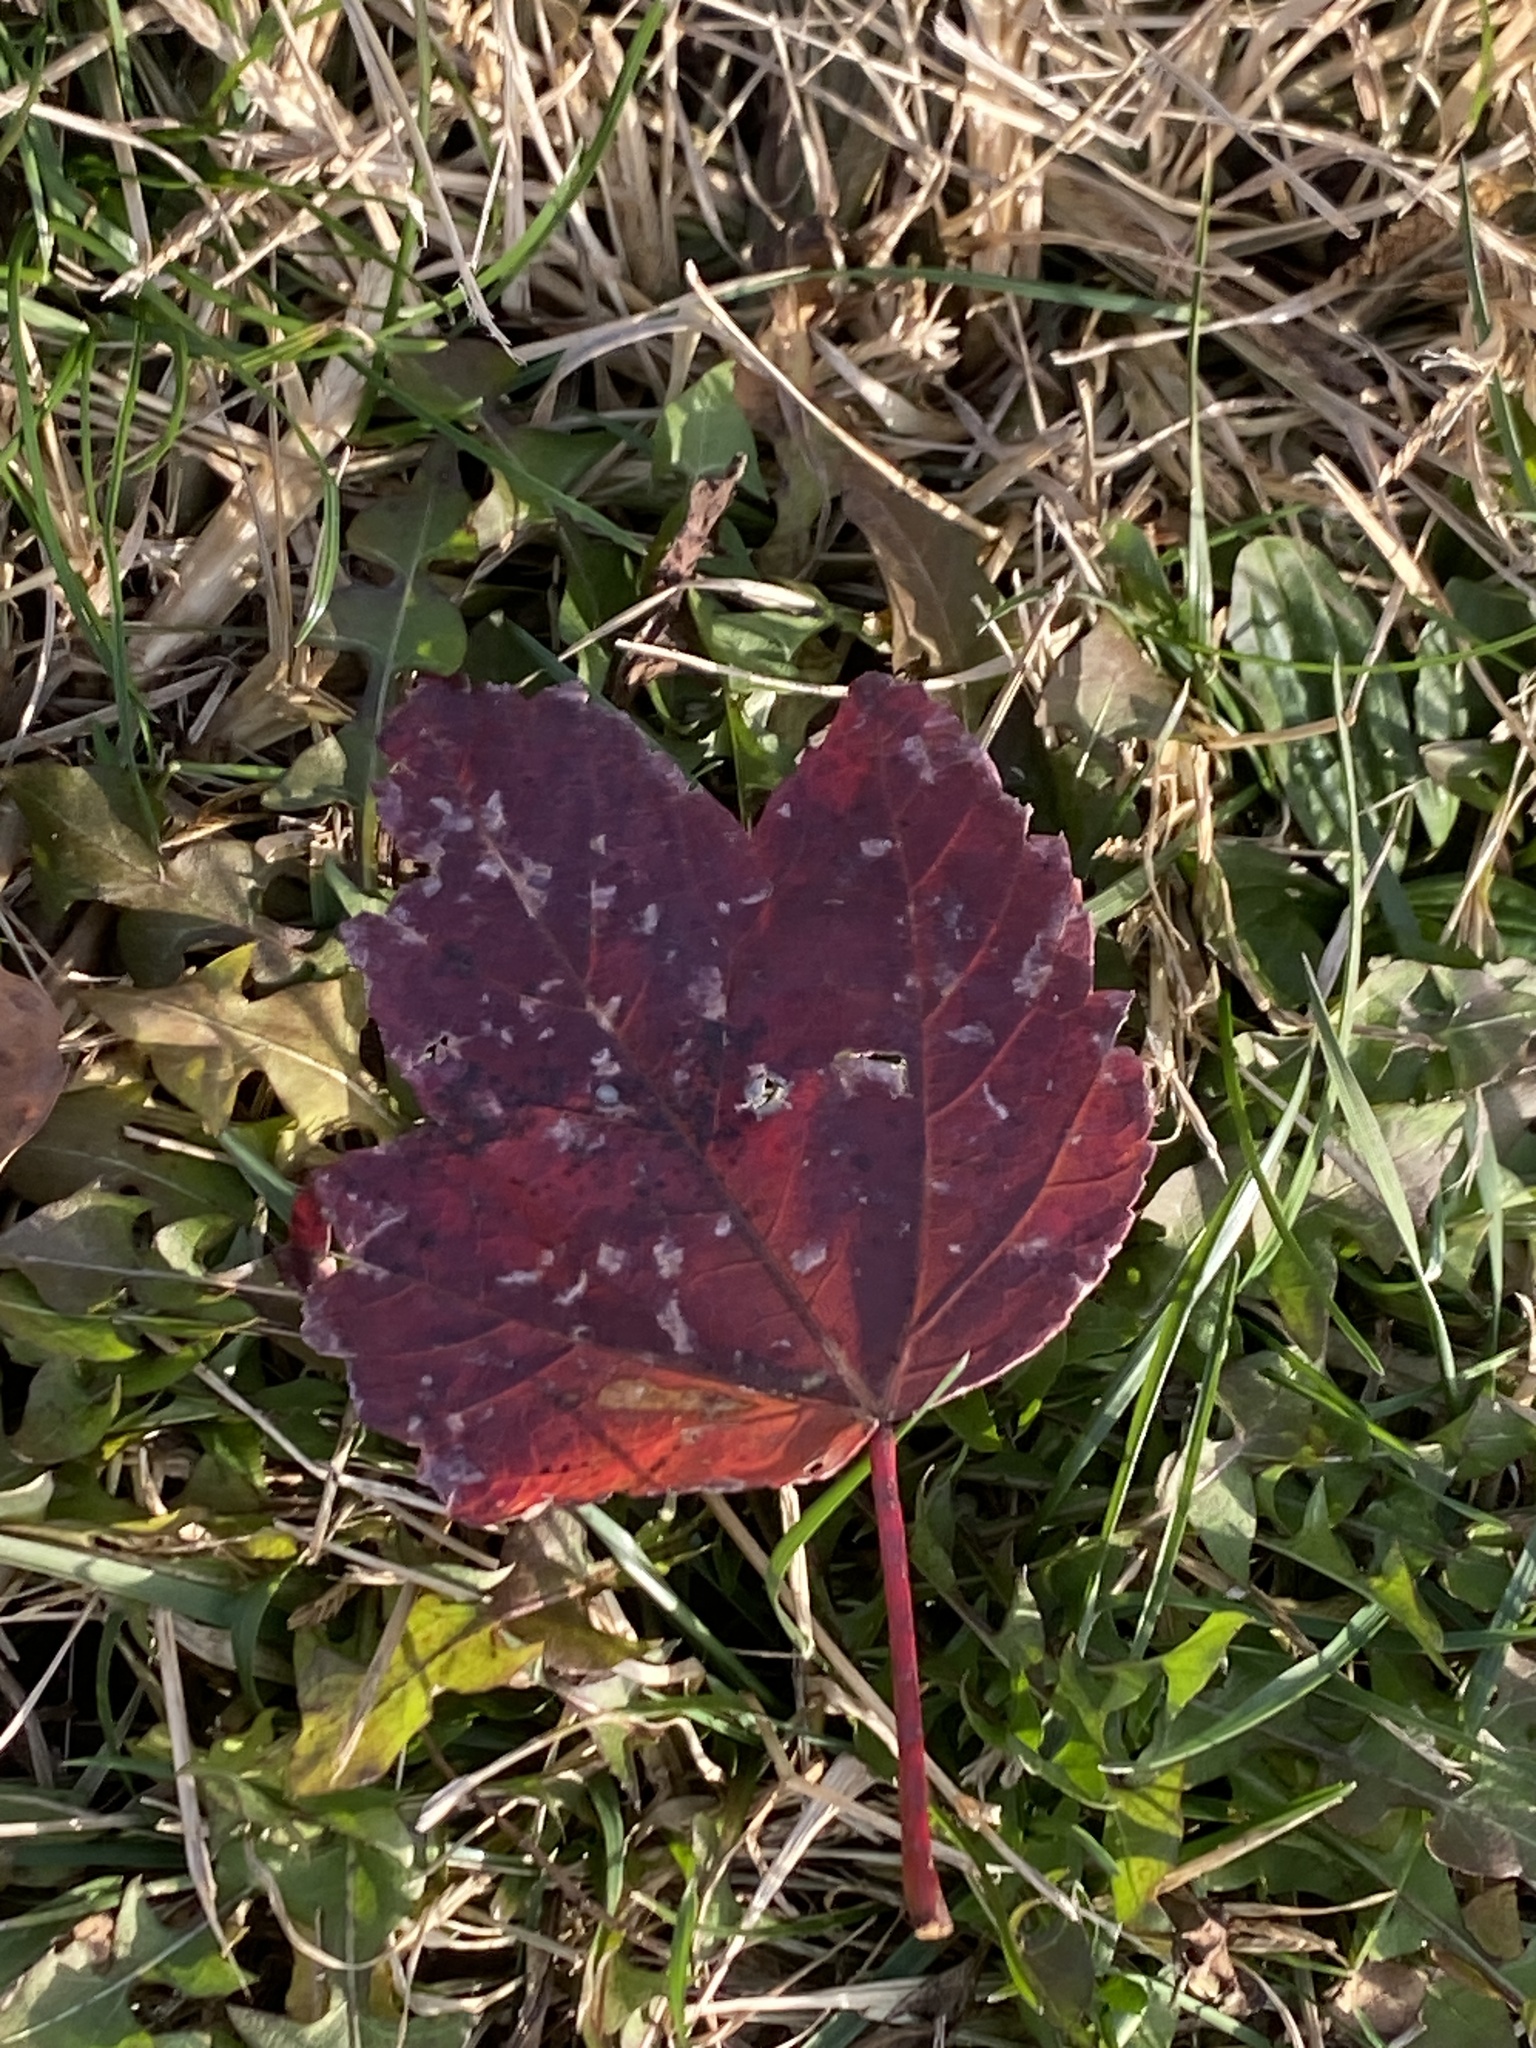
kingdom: Plantae
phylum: Tracheophyta
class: Magnoliopsida
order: Sapindales
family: Sapindaceae
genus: Acer
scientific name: Acer rubrum
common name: Red maple
